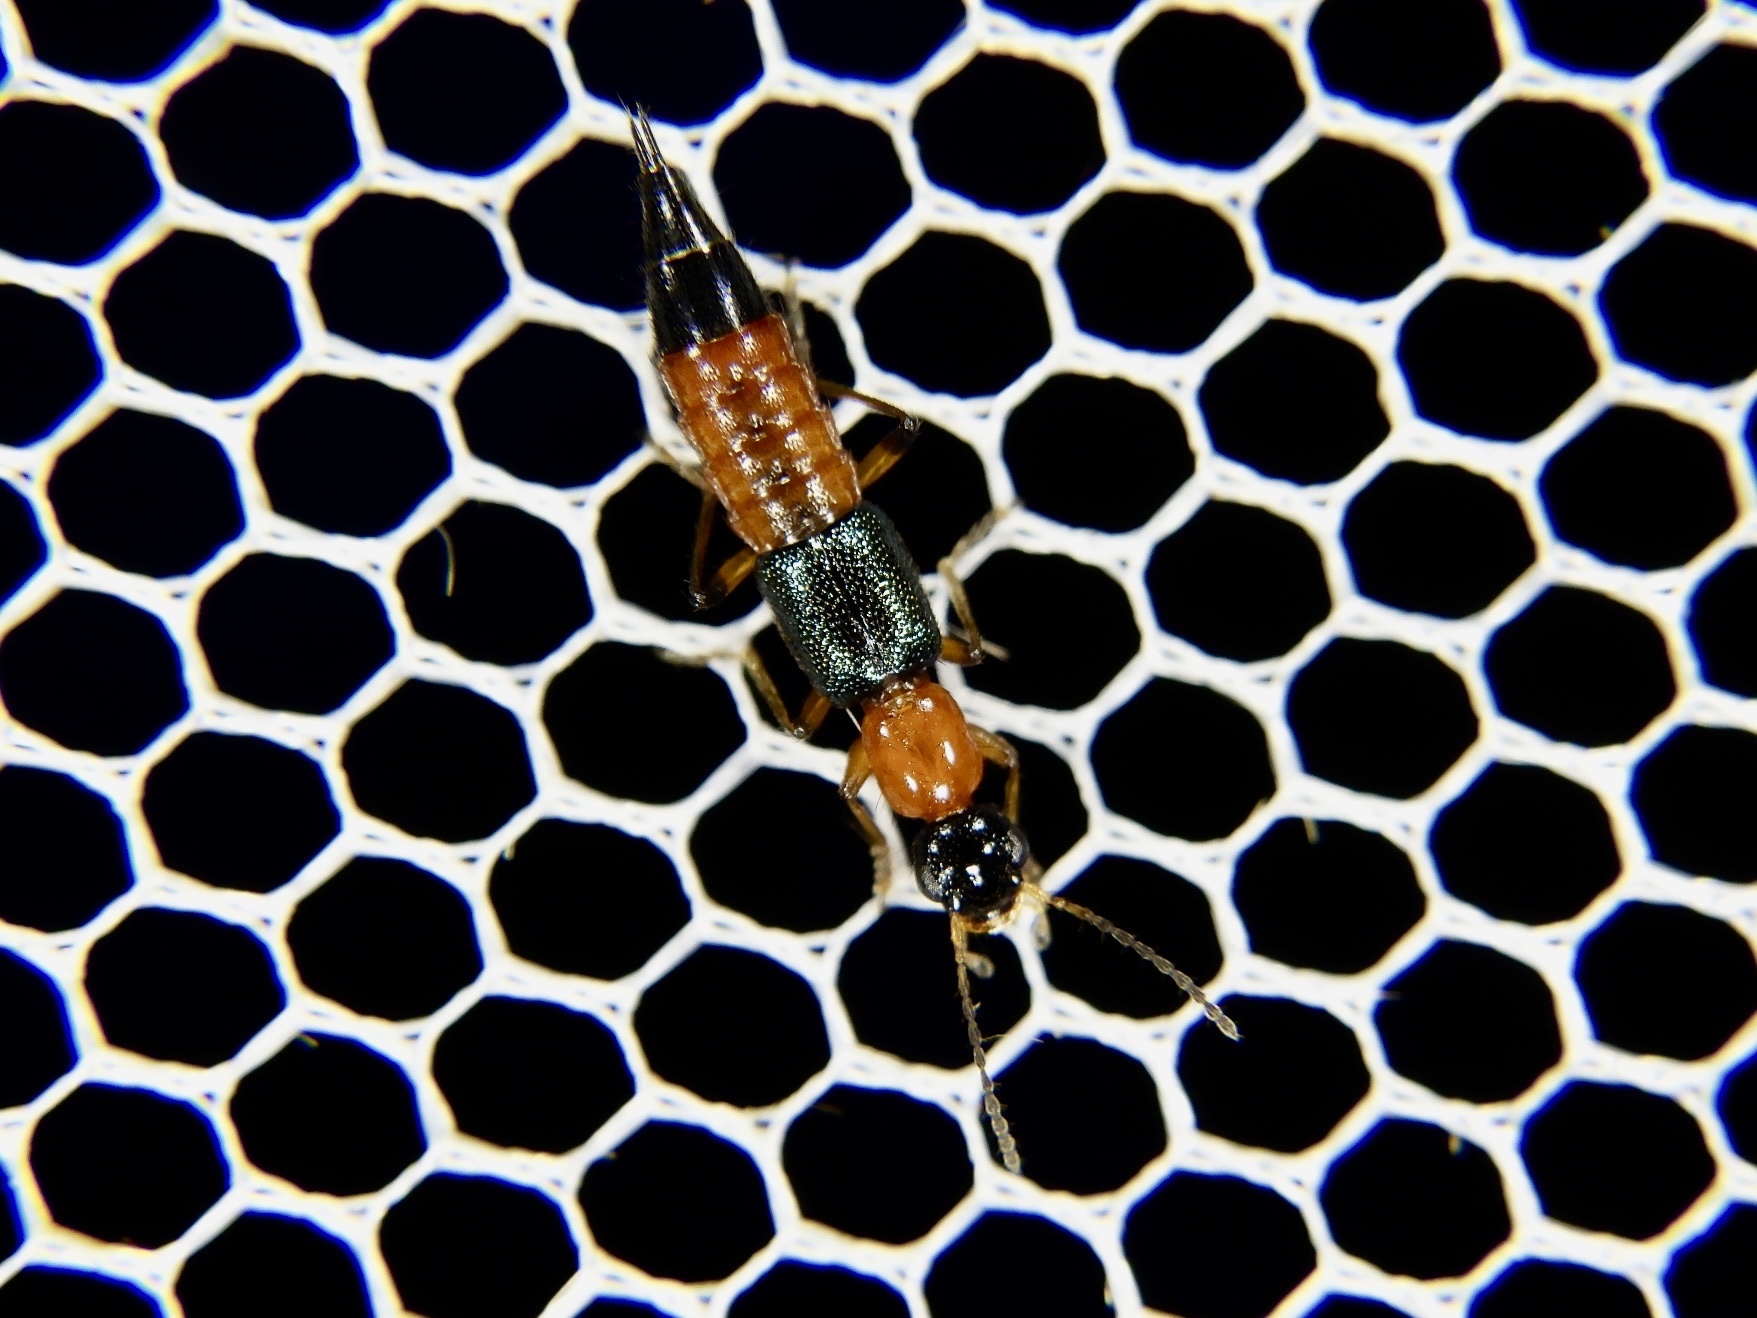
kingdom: Animalia
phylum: Arthropoda
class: Insecta
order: Coleoptera
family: Staphylinidae
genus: Paederus
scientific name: Paederus fuscipes
